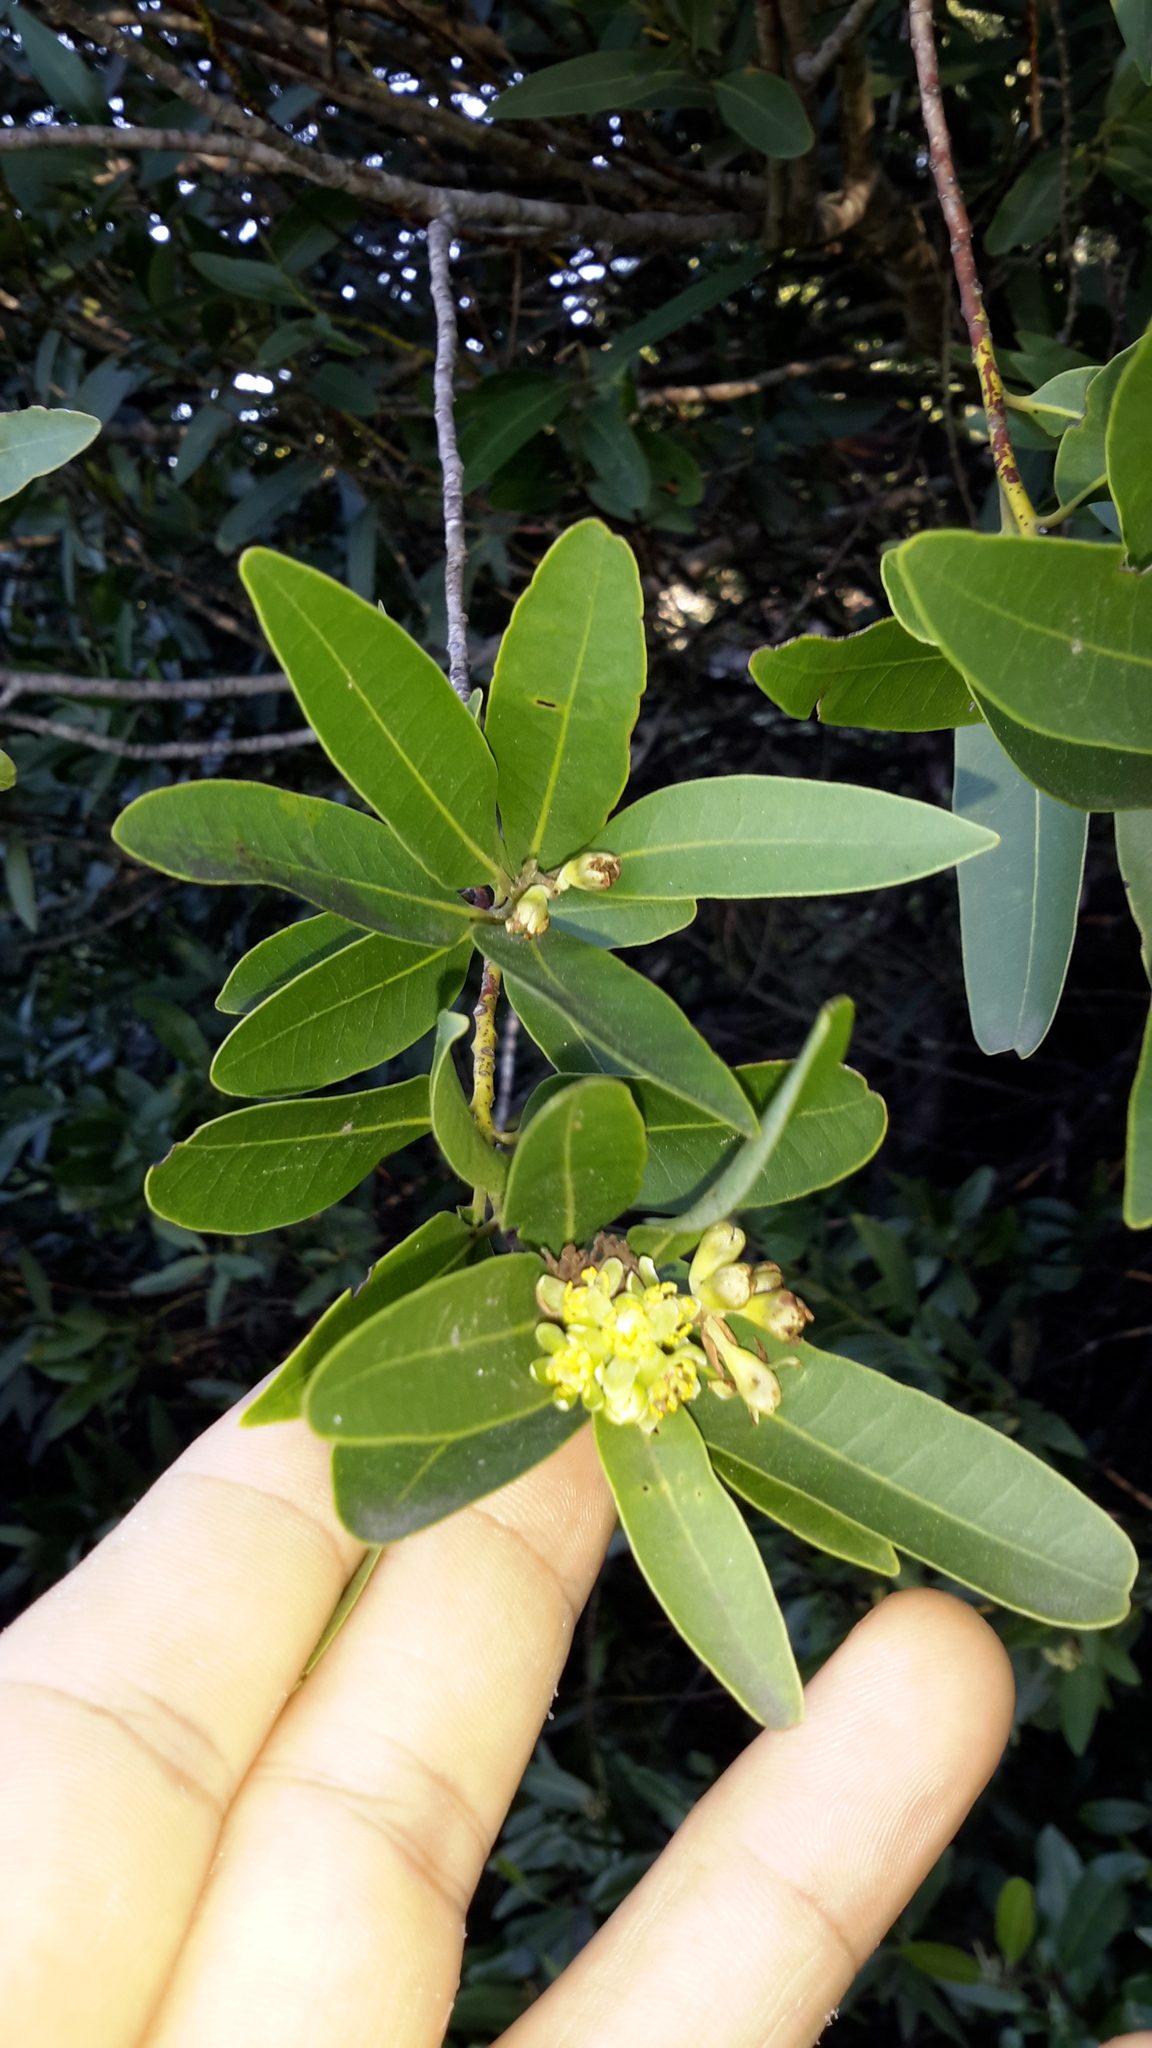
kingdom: Plantae
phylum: Tracheophyta
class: Magnoliopsida
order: Laurales
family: Lauraceae
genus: Umbellularia
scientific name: Umbellularia californica
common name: California bay
